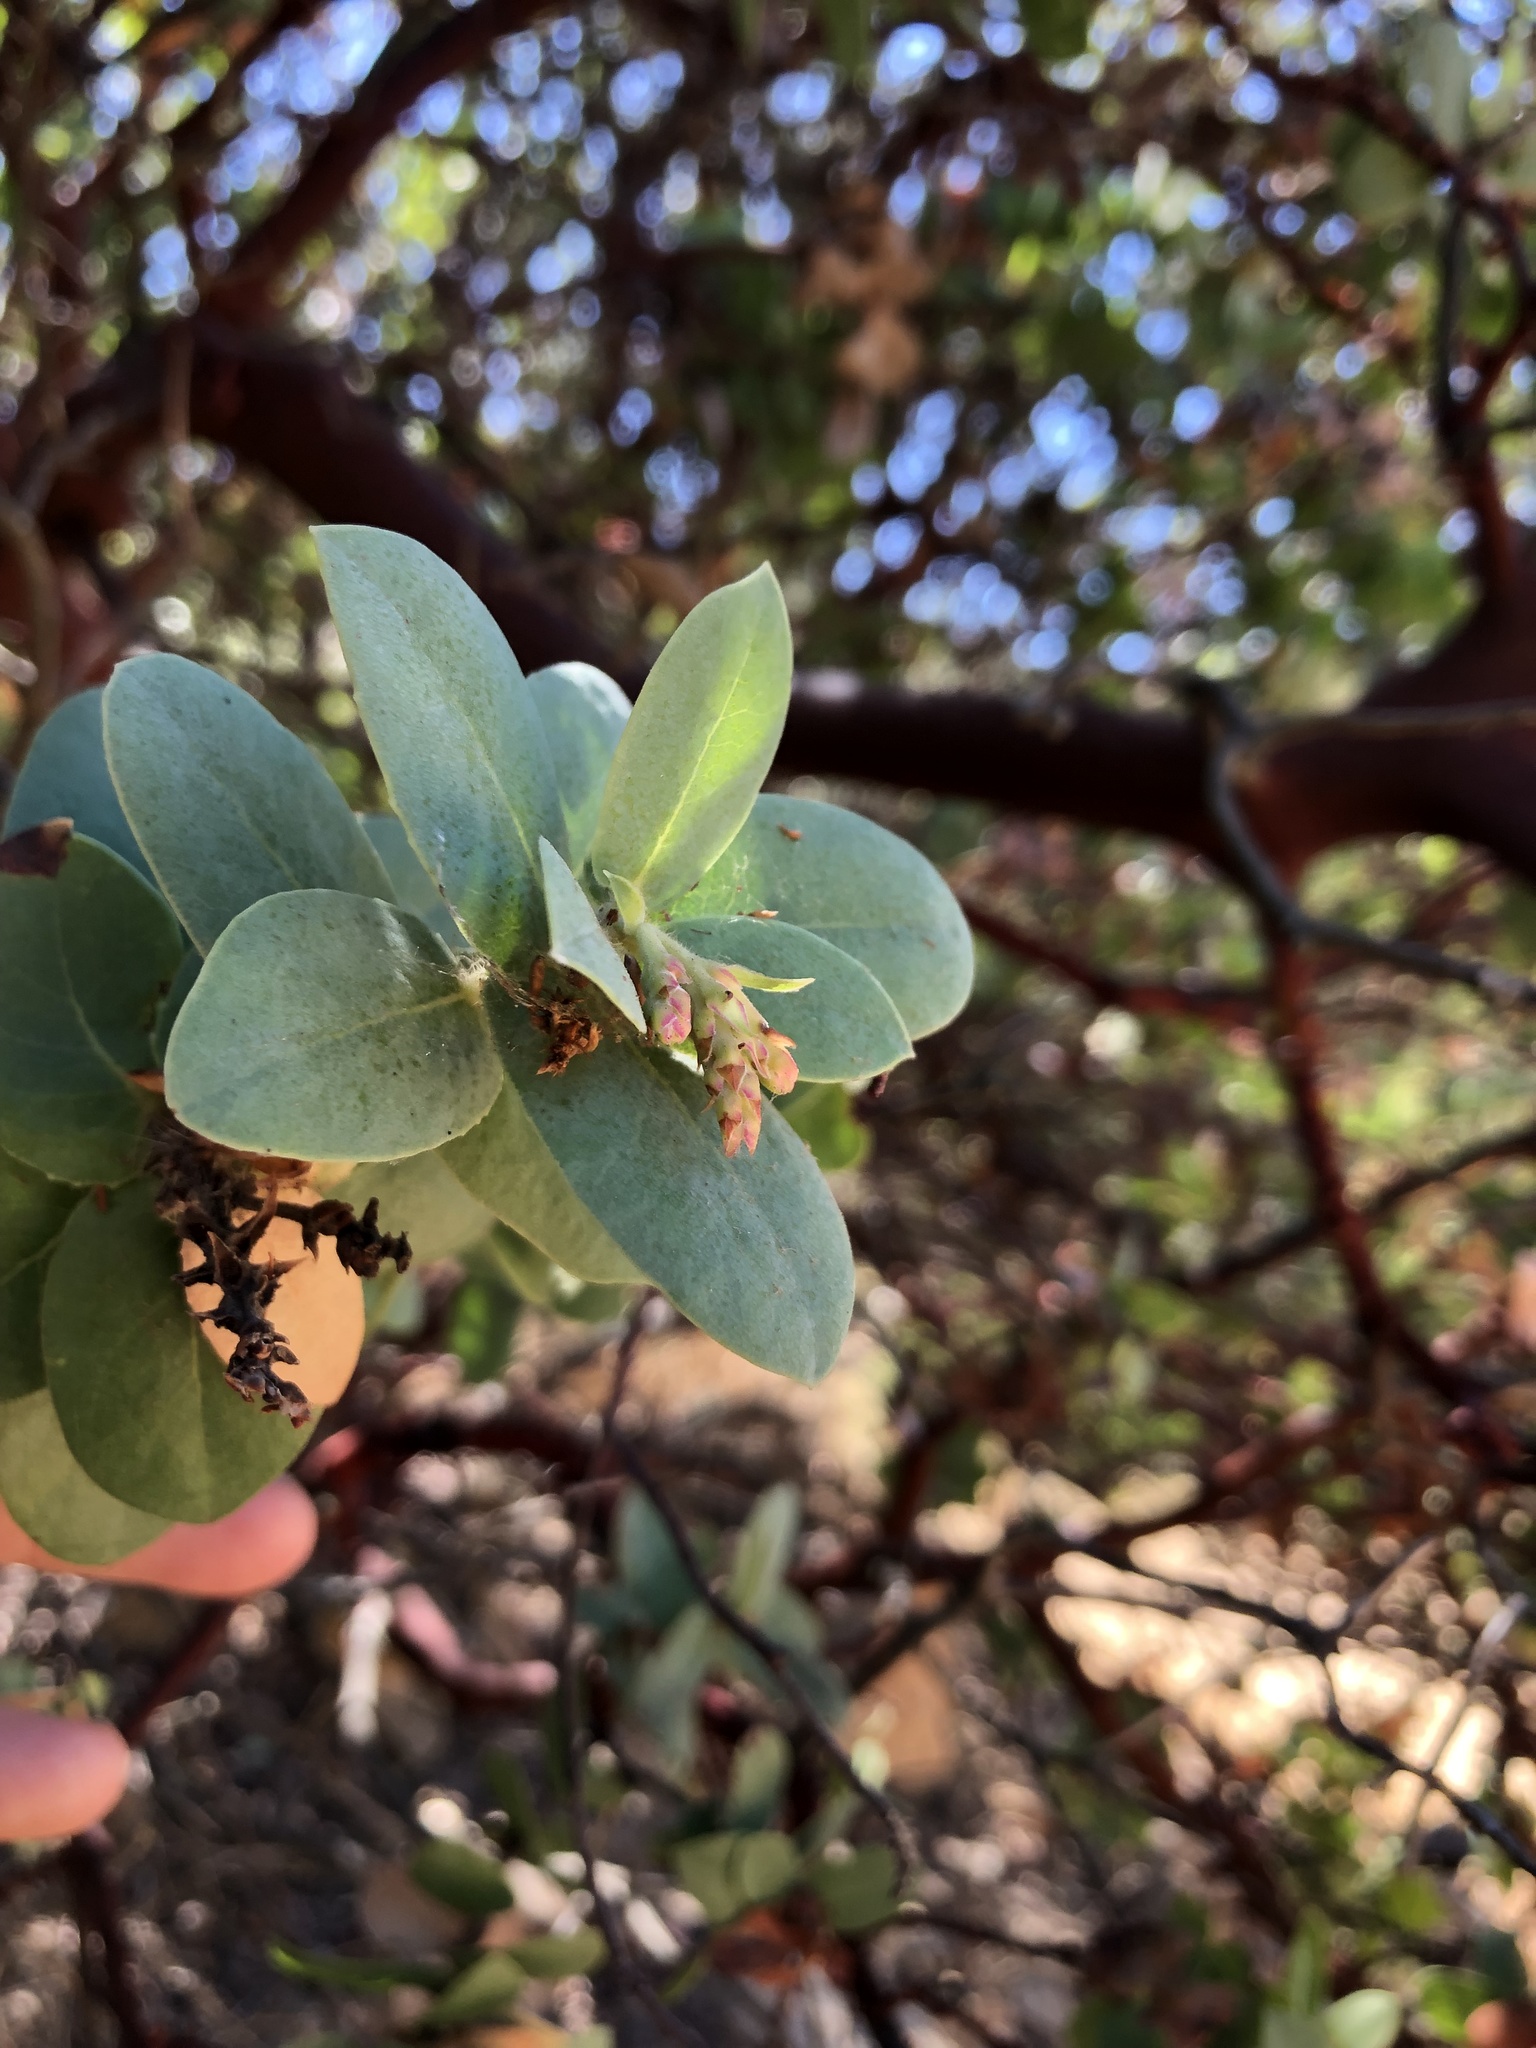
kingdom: Plantae
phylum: Tracheophyta
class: Magnoliopsida
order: Ericales
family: Ericaceae
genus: Arctostaphylos
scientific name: Arctostaphylos refugioensis
